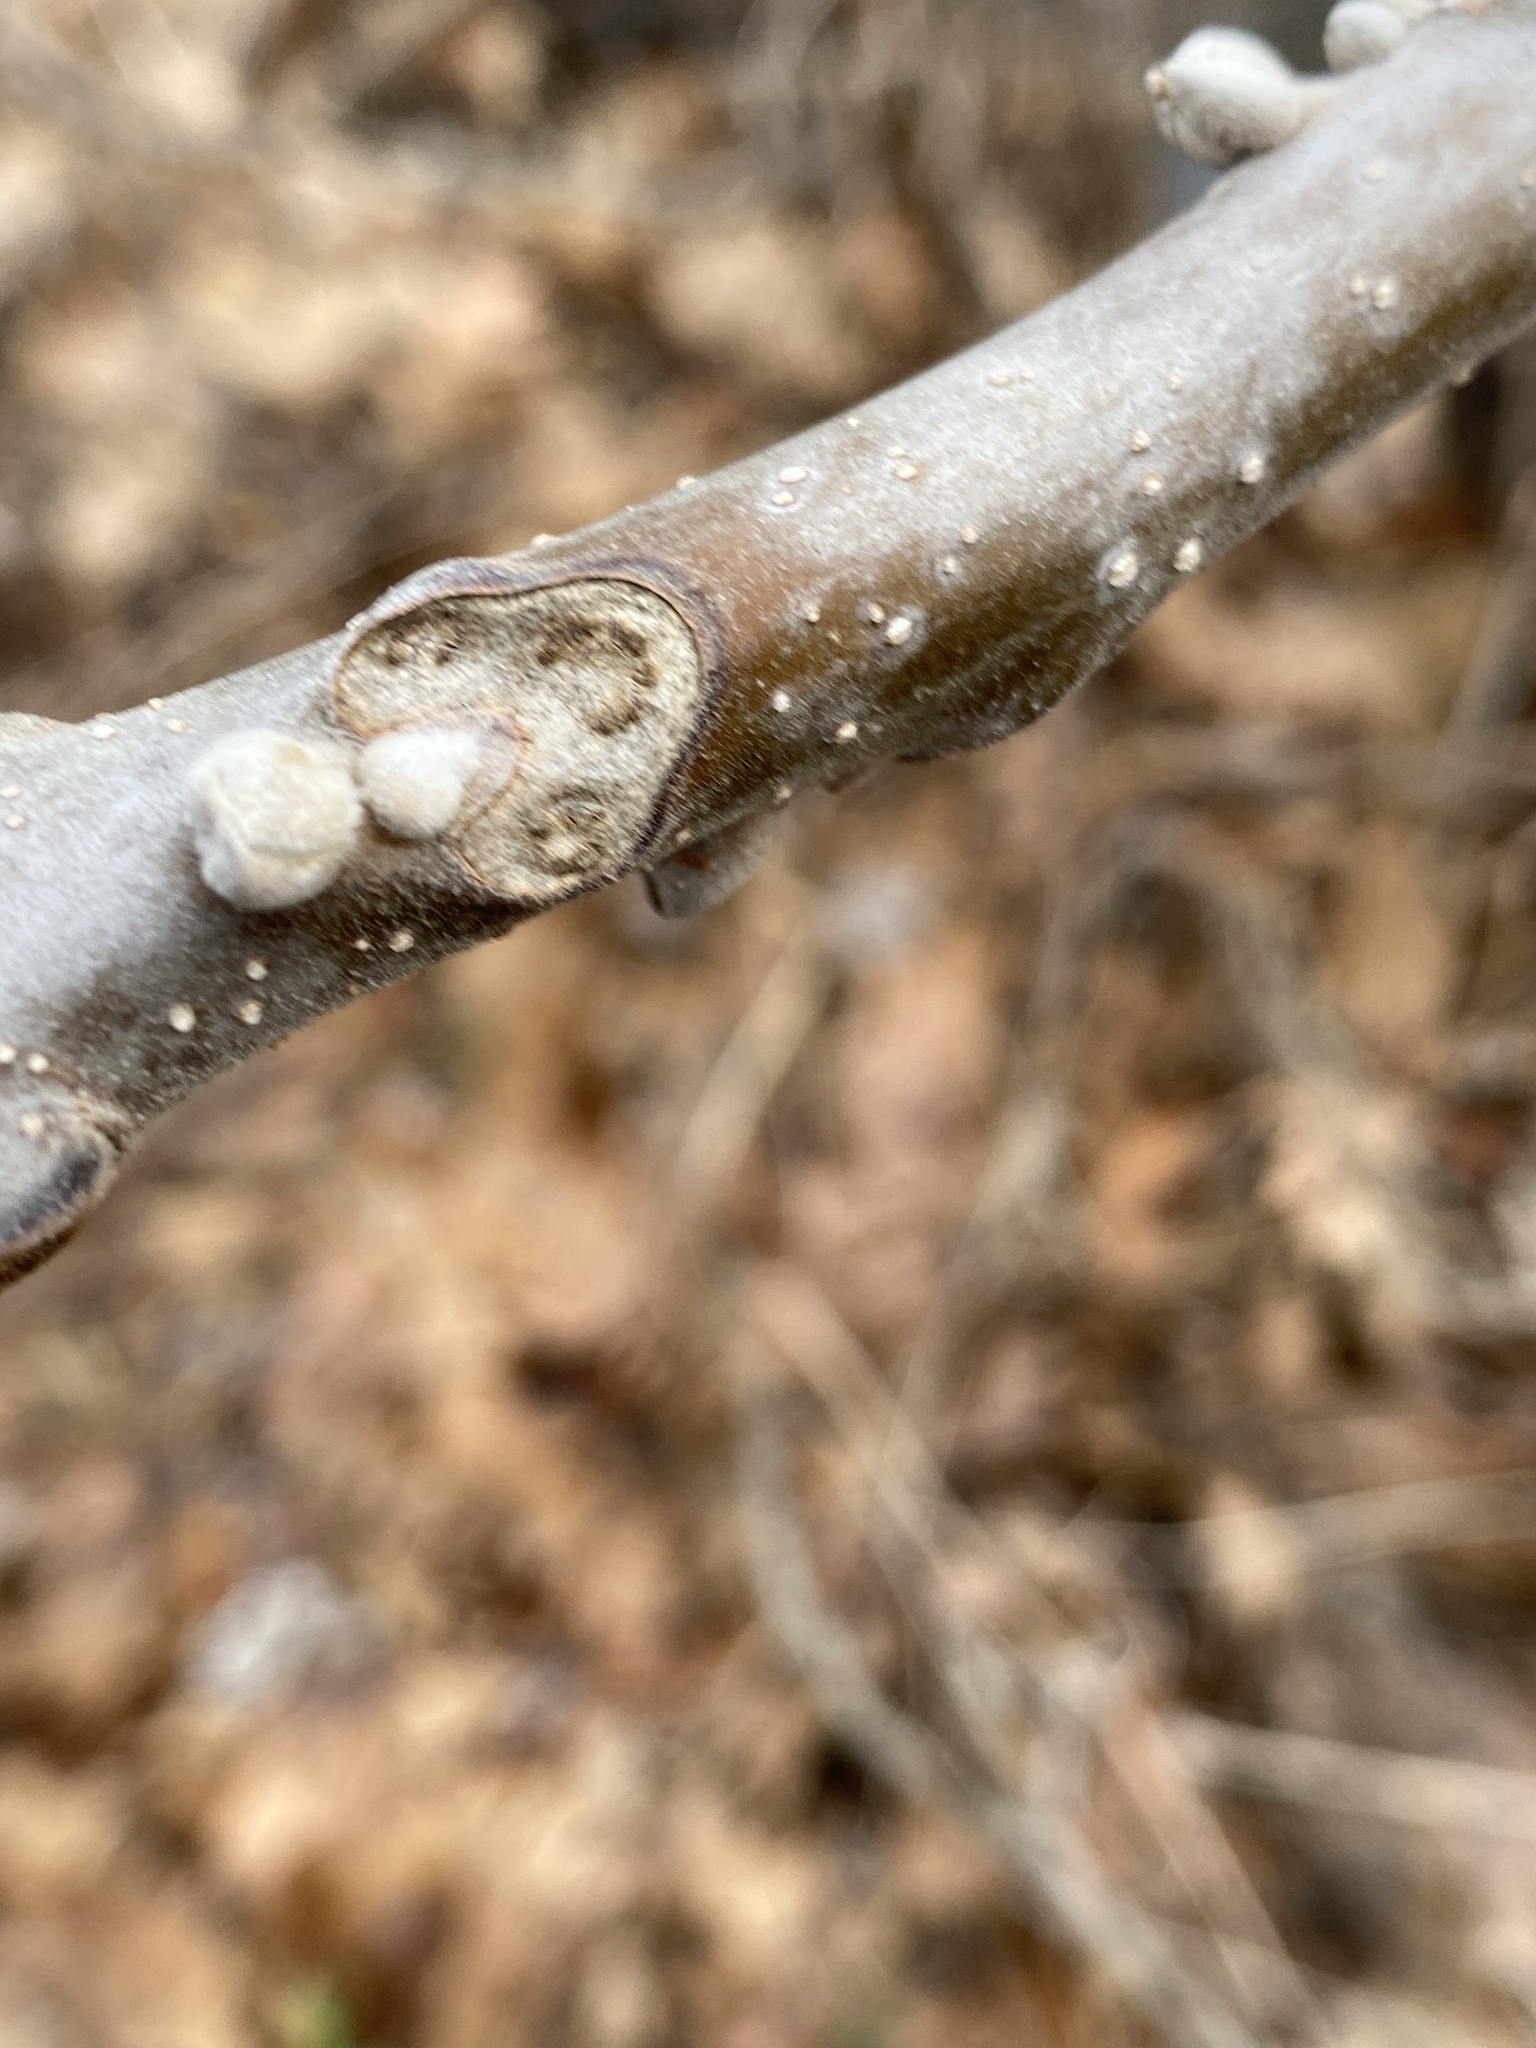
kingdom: Plantae
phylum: Tracheophyta
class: Magnoliopsida
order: Fagales
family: Juglandaceae
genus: Juglans
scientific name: Juglans nigra
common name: Black walnut
